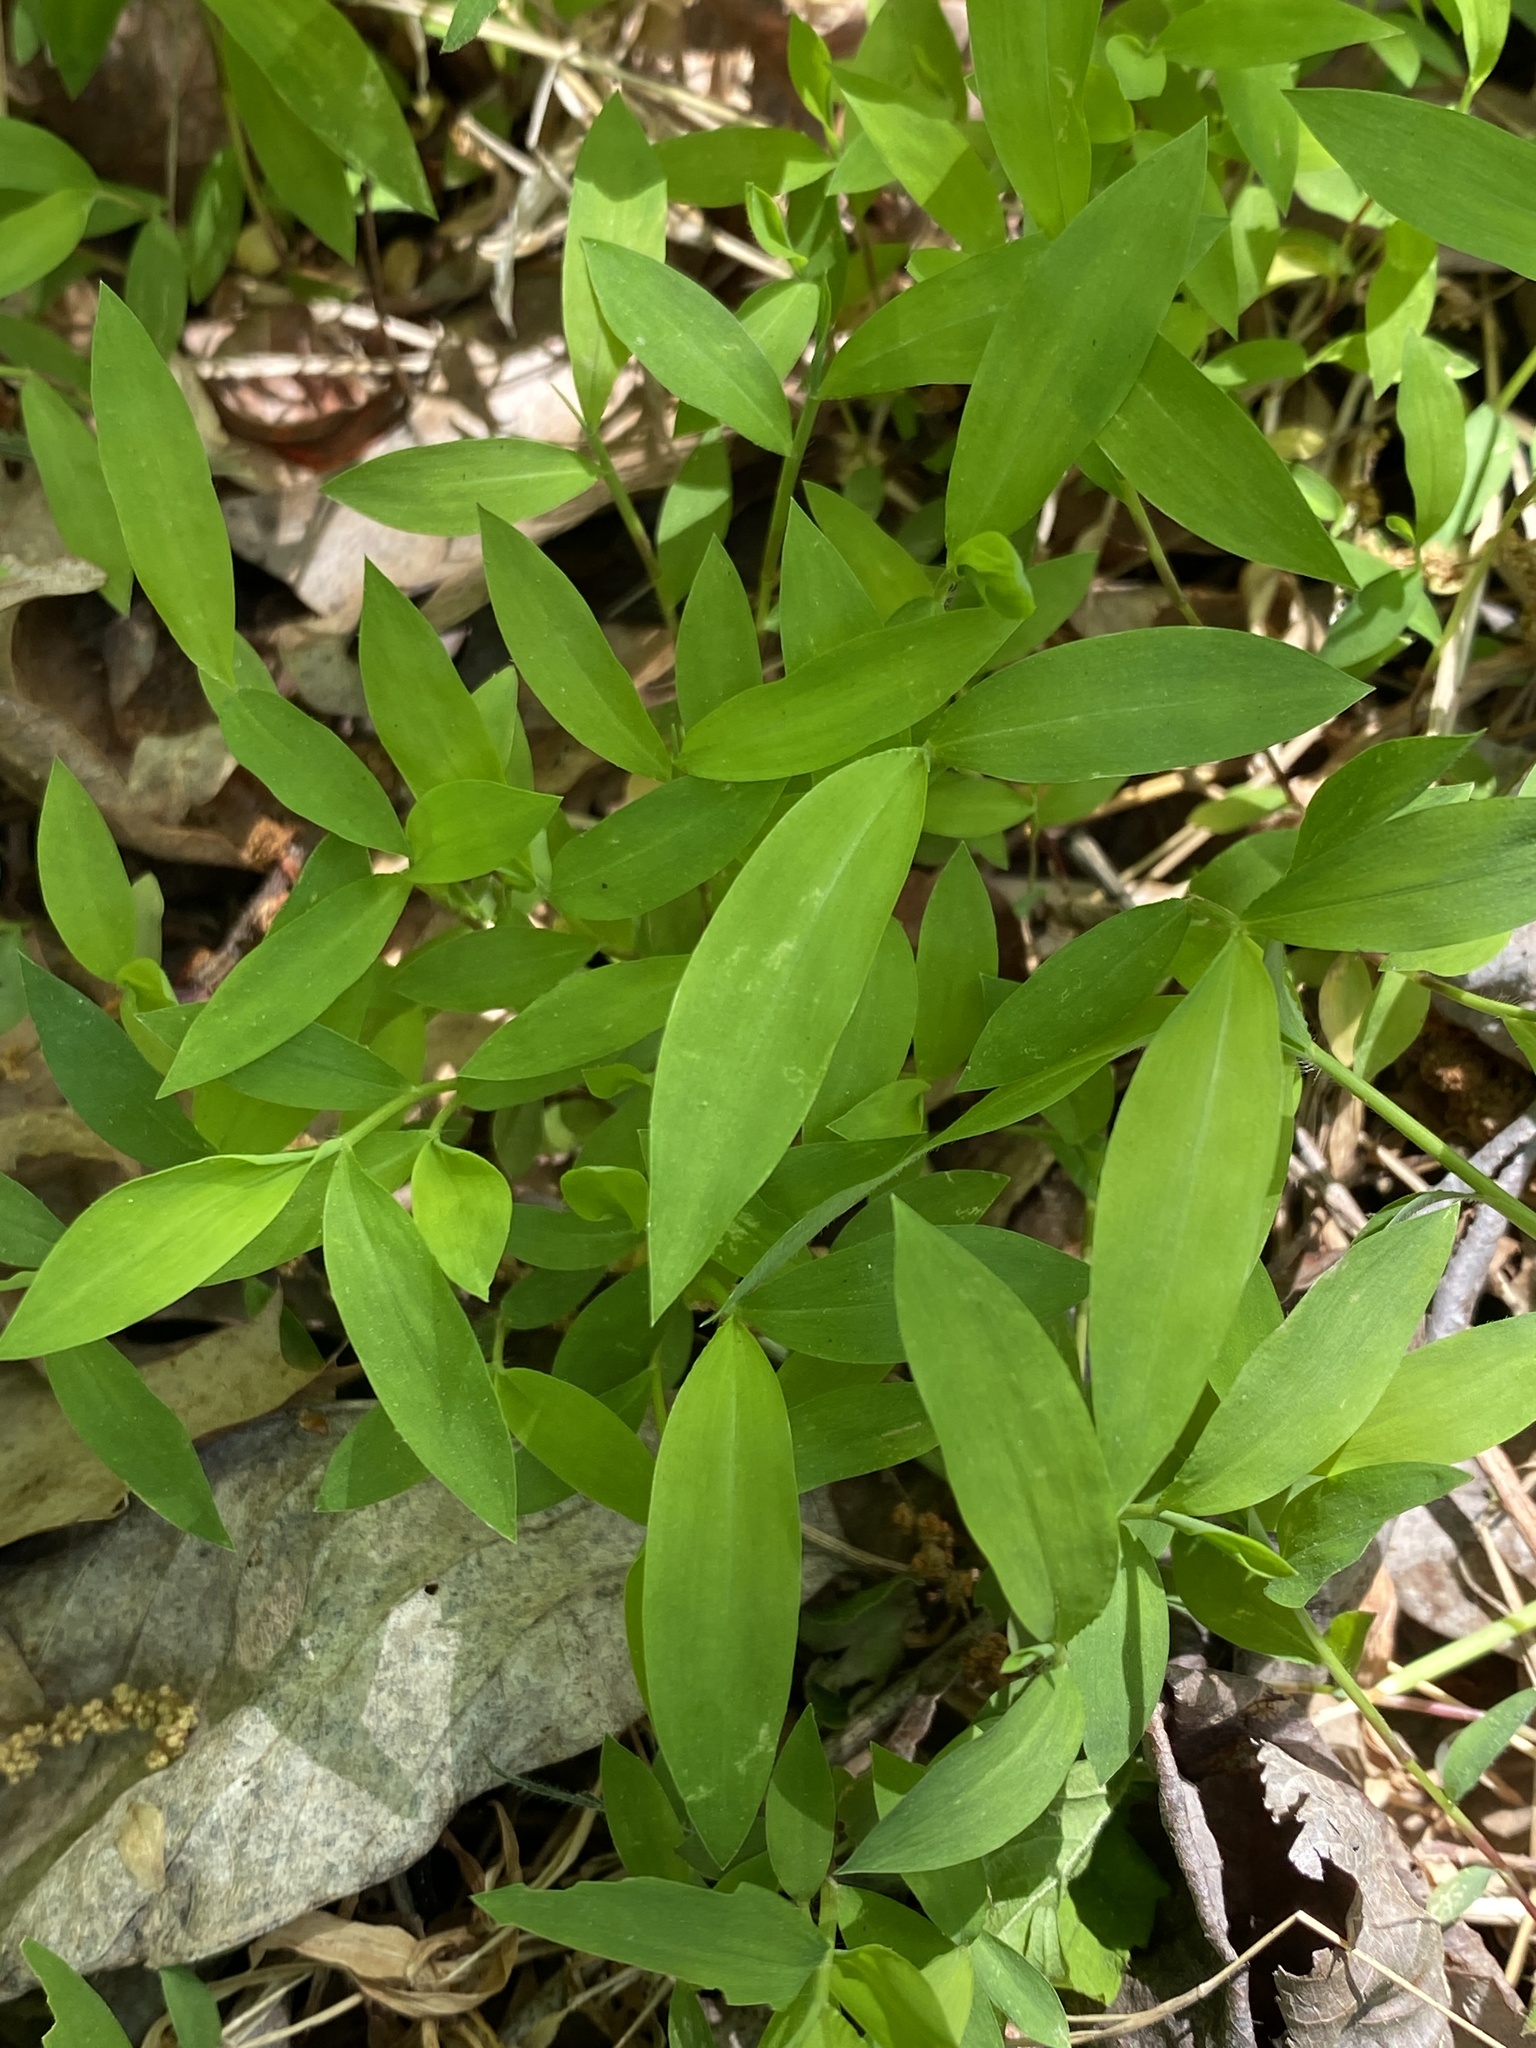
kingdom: Plantae
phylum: Tracheophyta
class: Liliopsida
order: Poales
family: Poaceae
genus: Microstegium
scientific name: Microstegium vimineum
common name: Japanese stiltgrass
